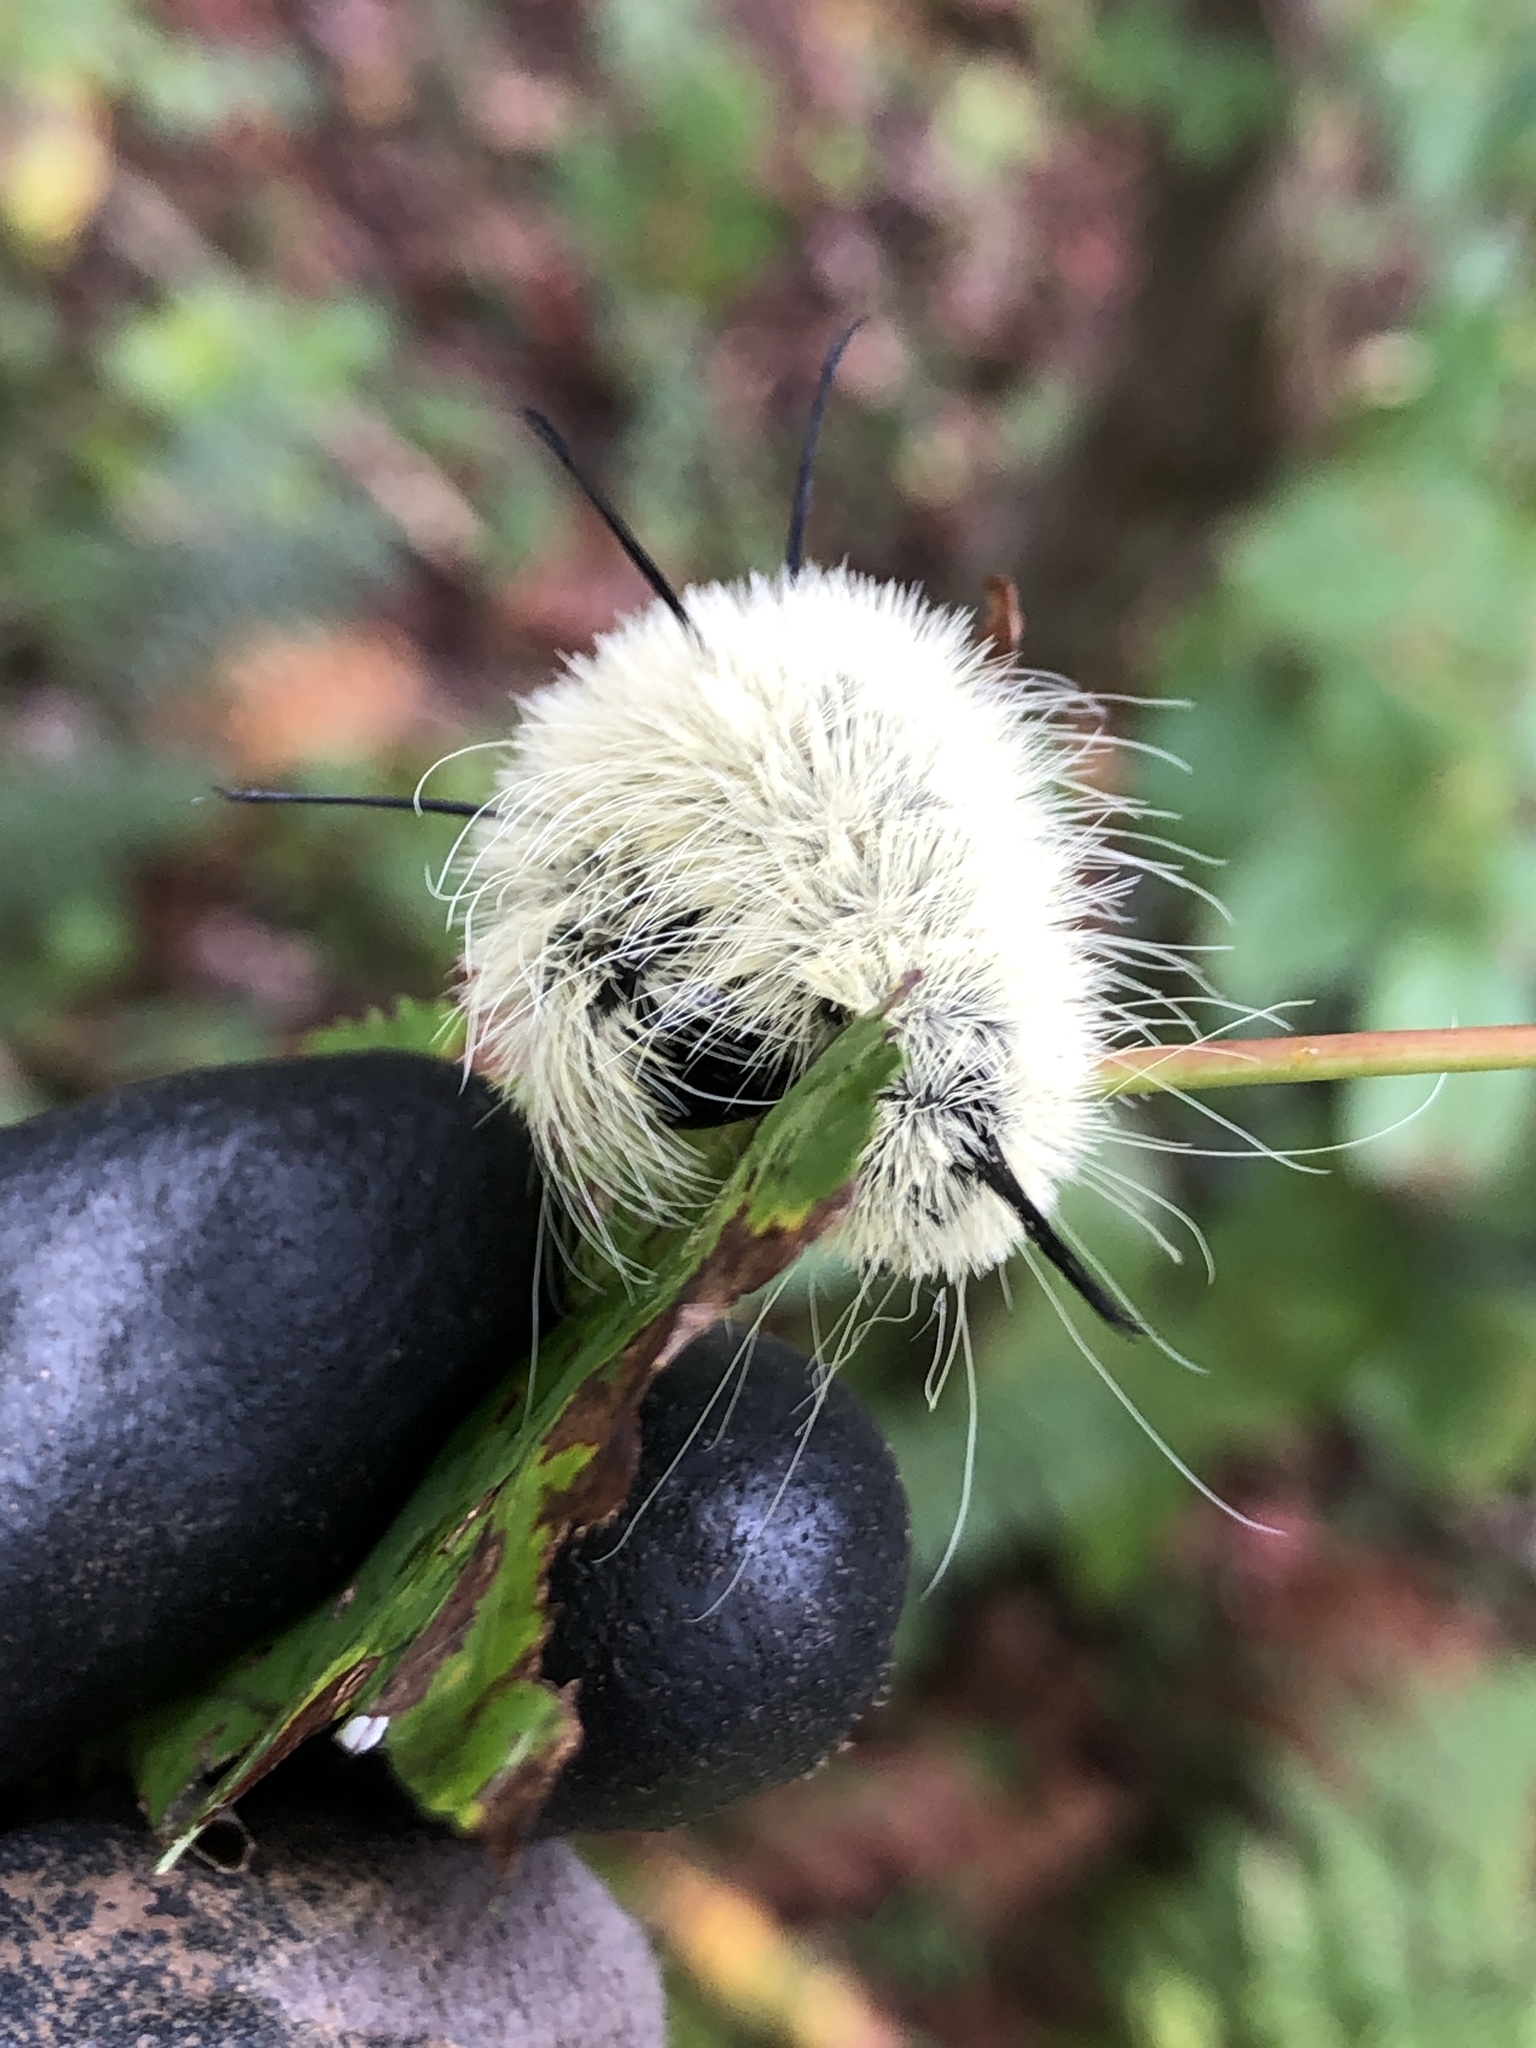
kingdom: Animalia
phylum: Arthropoda
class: Insecta
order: Lepidoptera
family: Noctuidae
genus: Acronicta
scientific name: Acronicta americana
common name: American dagger
